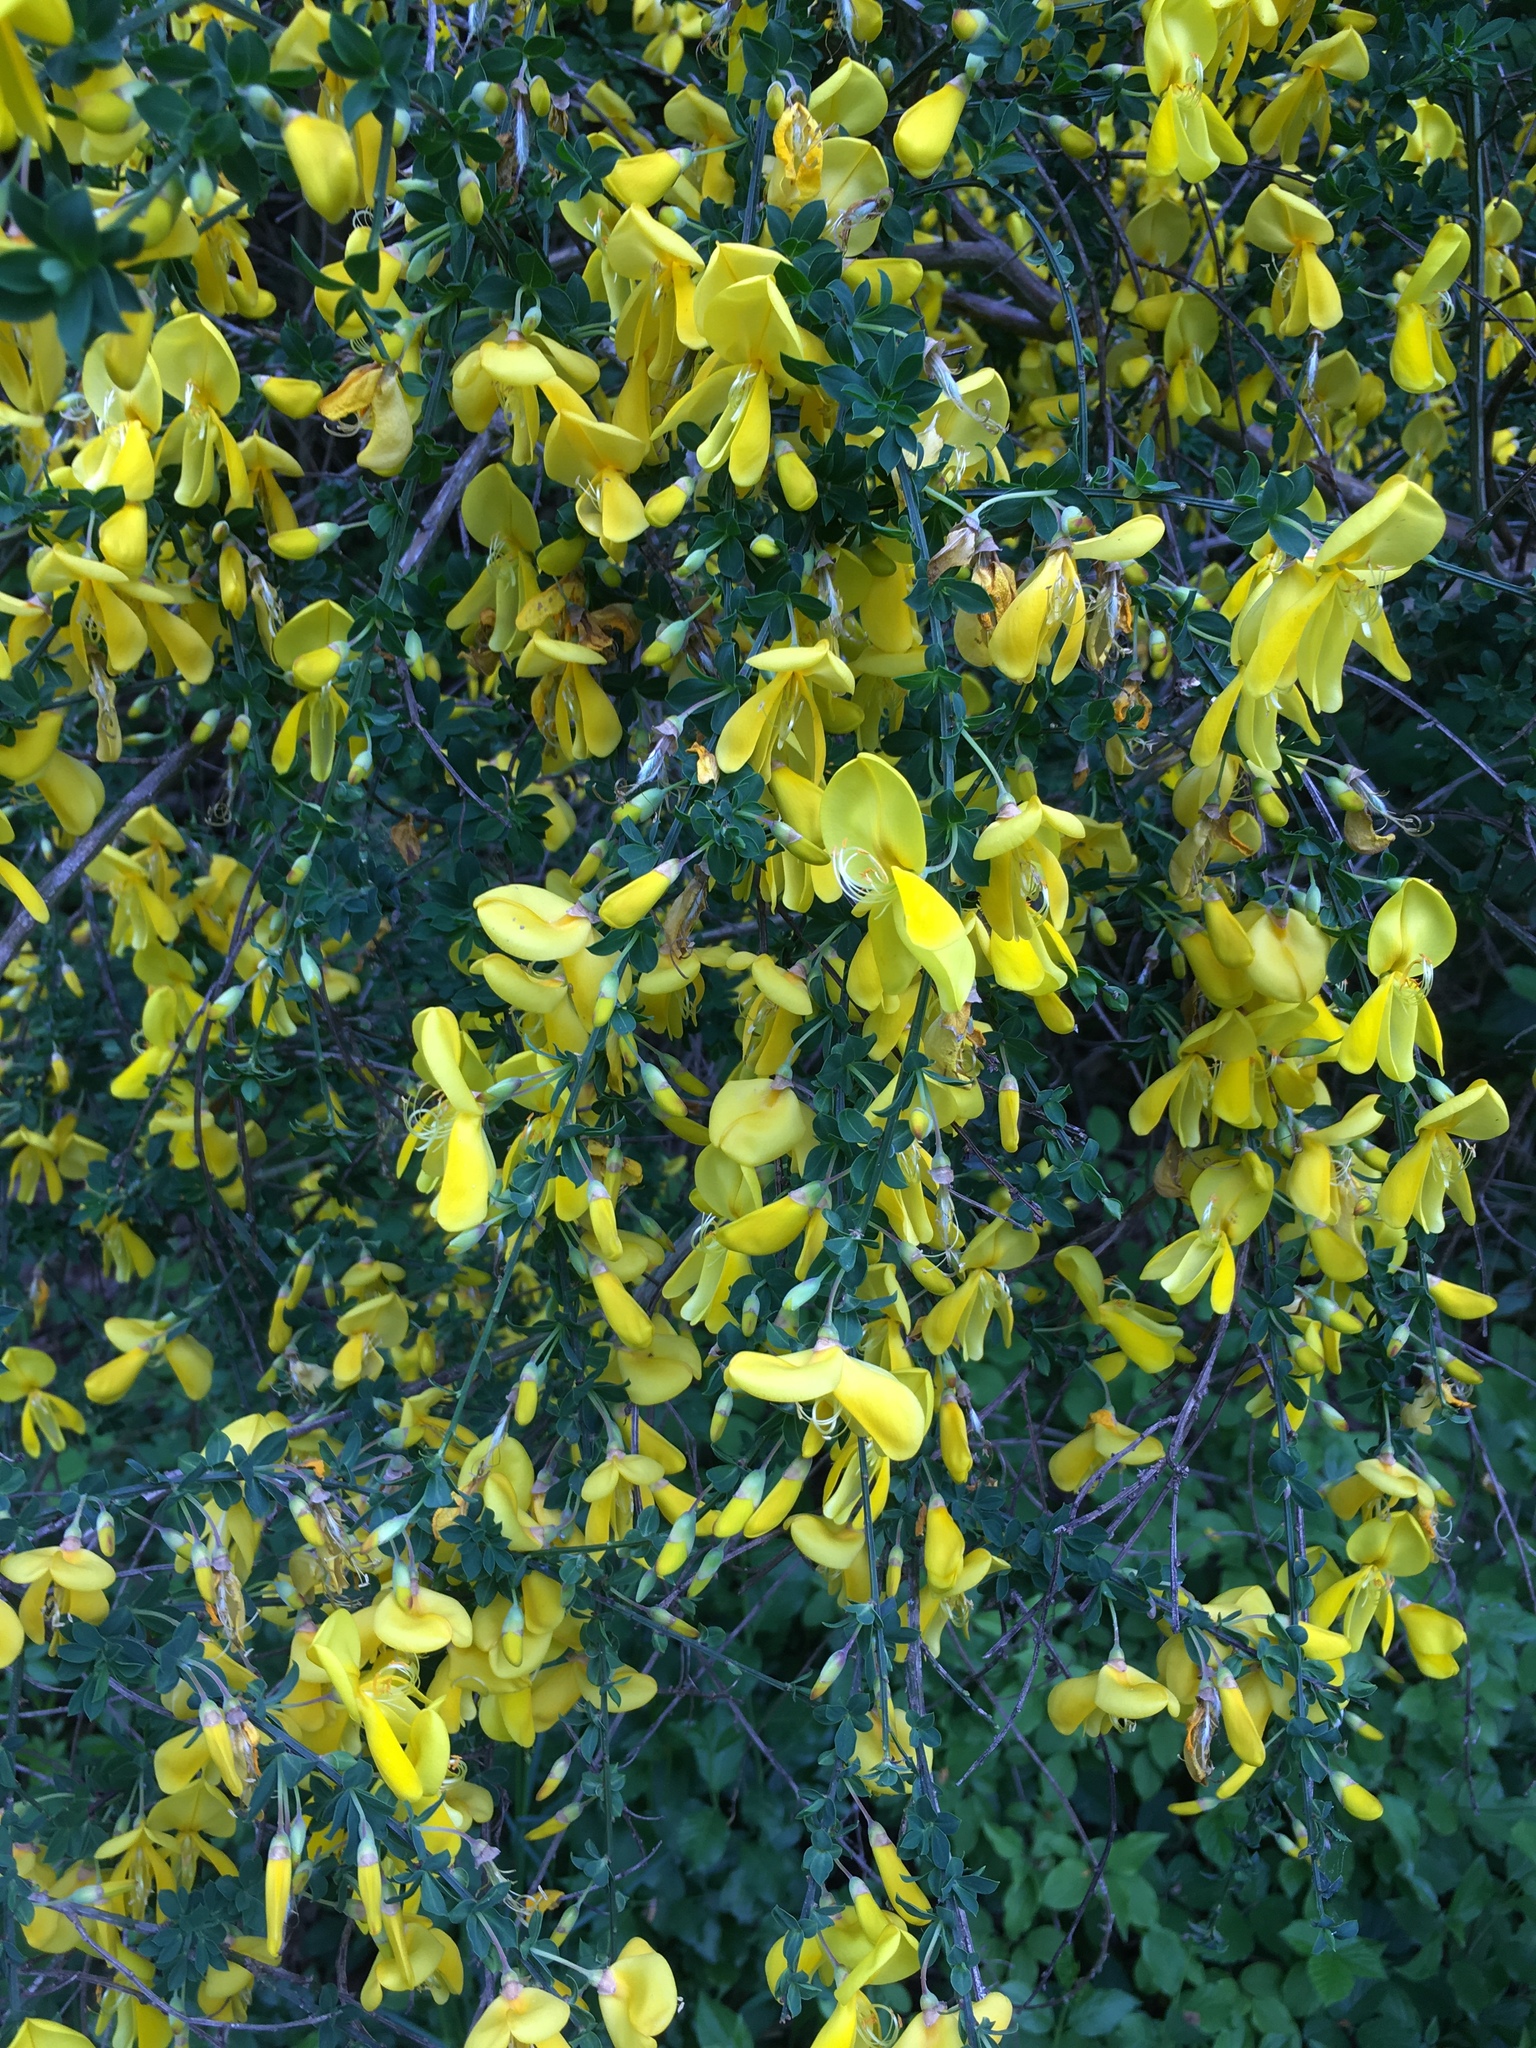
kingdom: Plantae
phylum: Tracheophyta
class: Magnoliopsida
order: Fabales
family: Fabaceae
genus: Cytisus
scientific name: Cytisus scoparius
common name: Scotch broom
